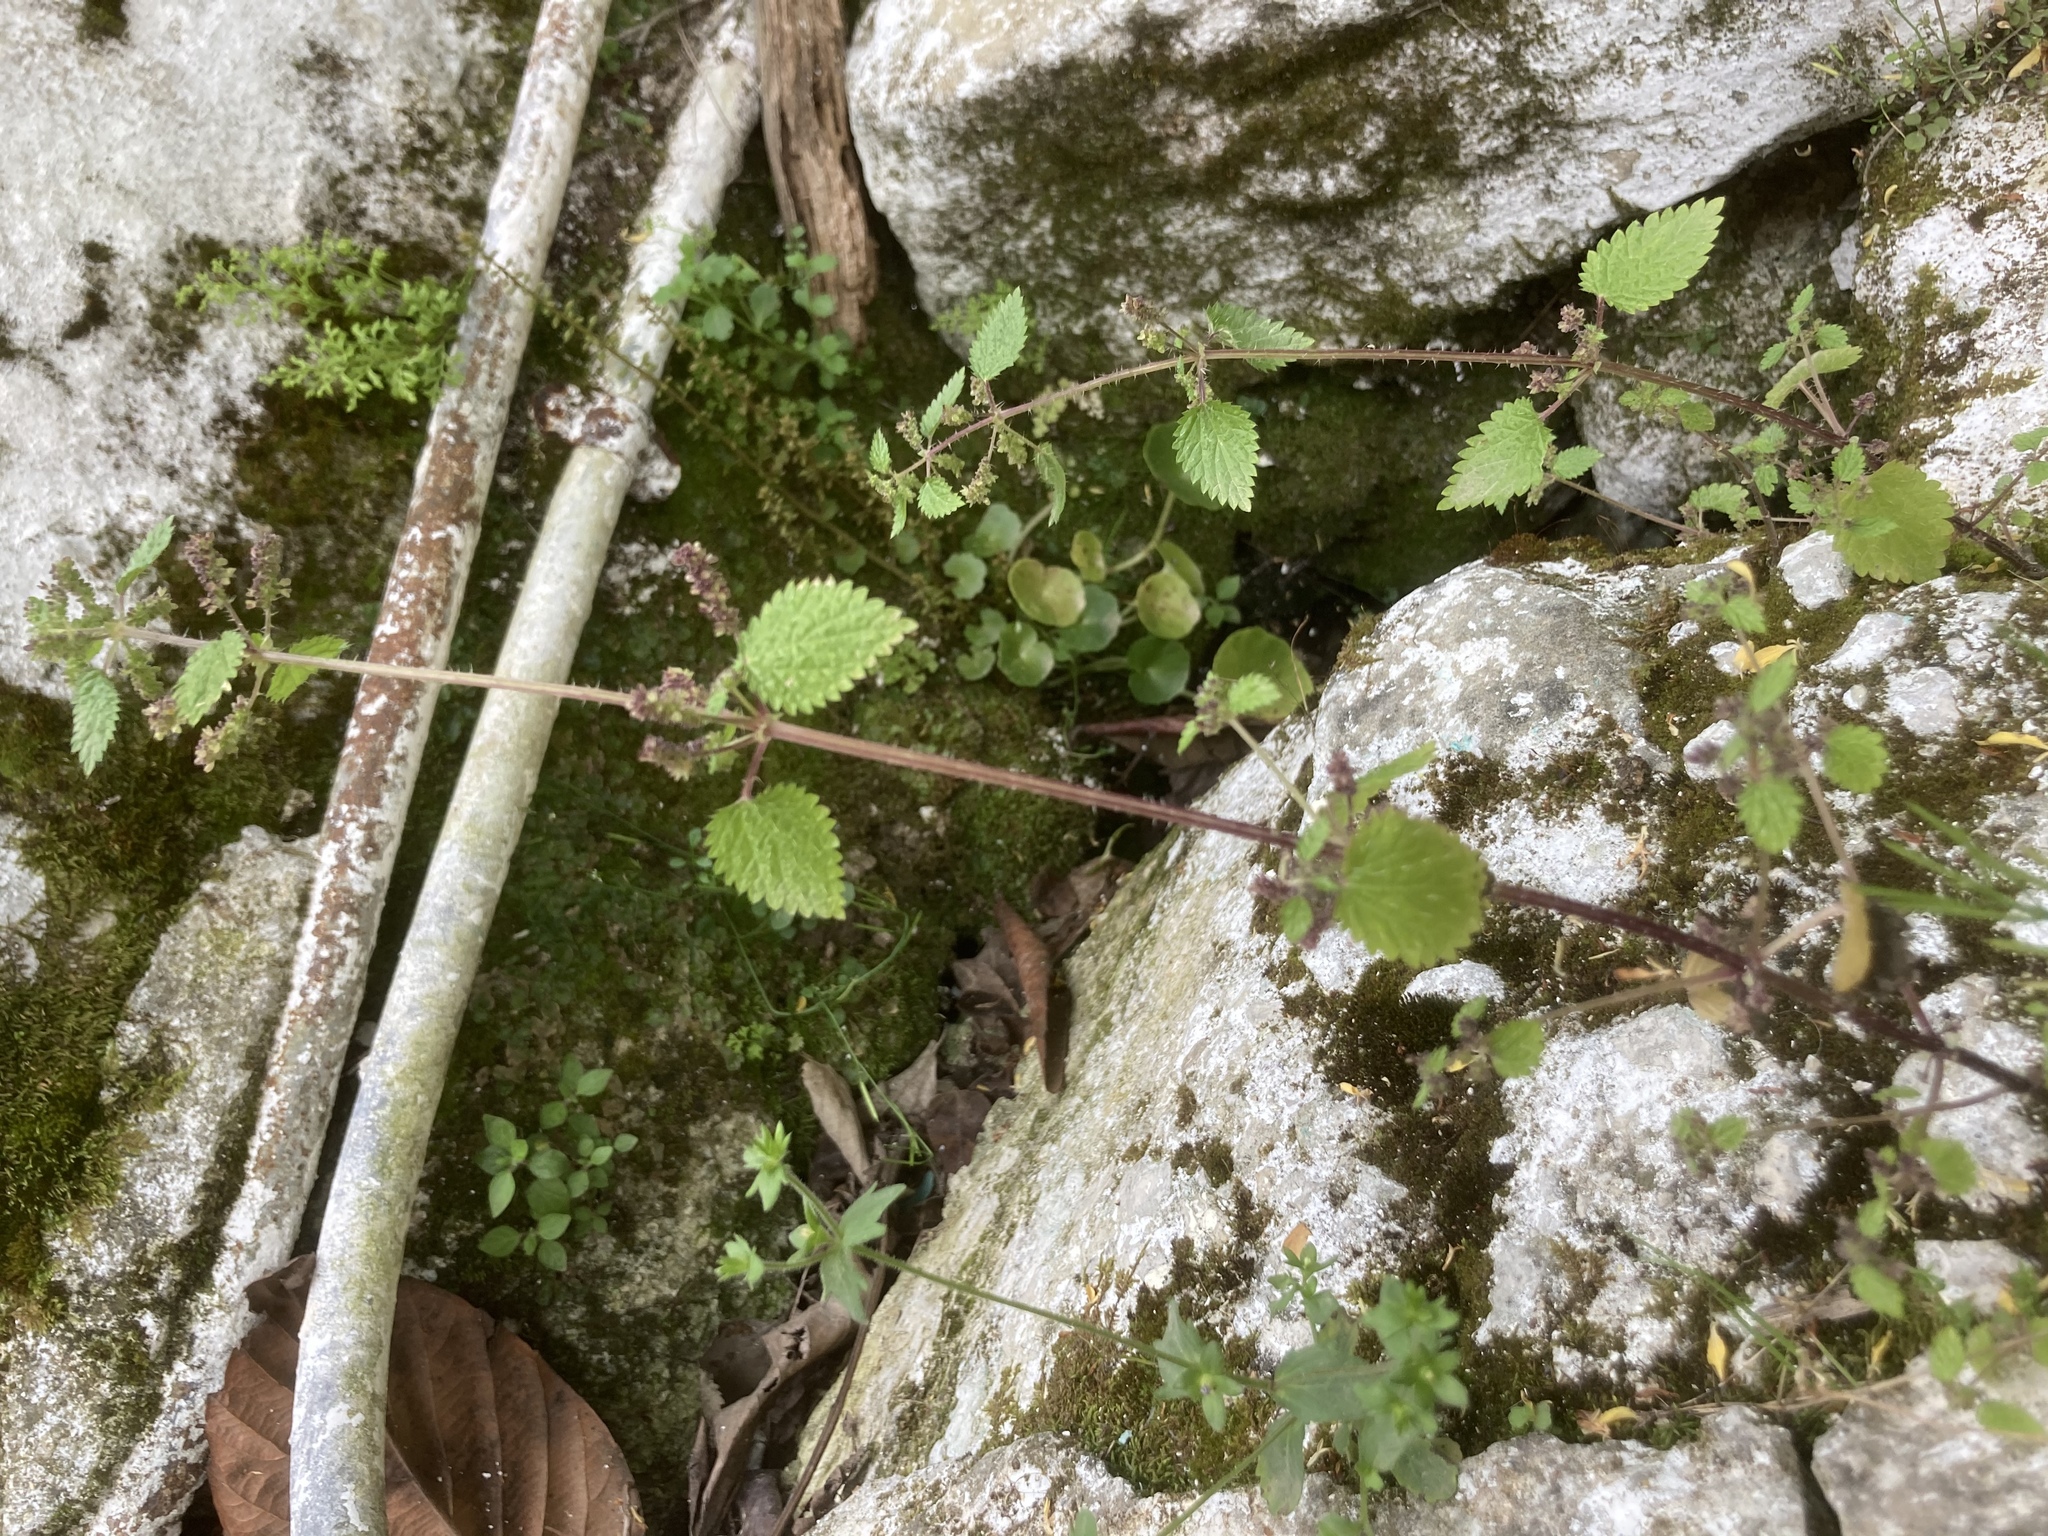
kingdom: Plantae
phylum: Tracheophyta
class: Magnoliopsida
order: Rosales
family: Urticaceae
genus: Urtica
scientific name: Urtica membranacea
